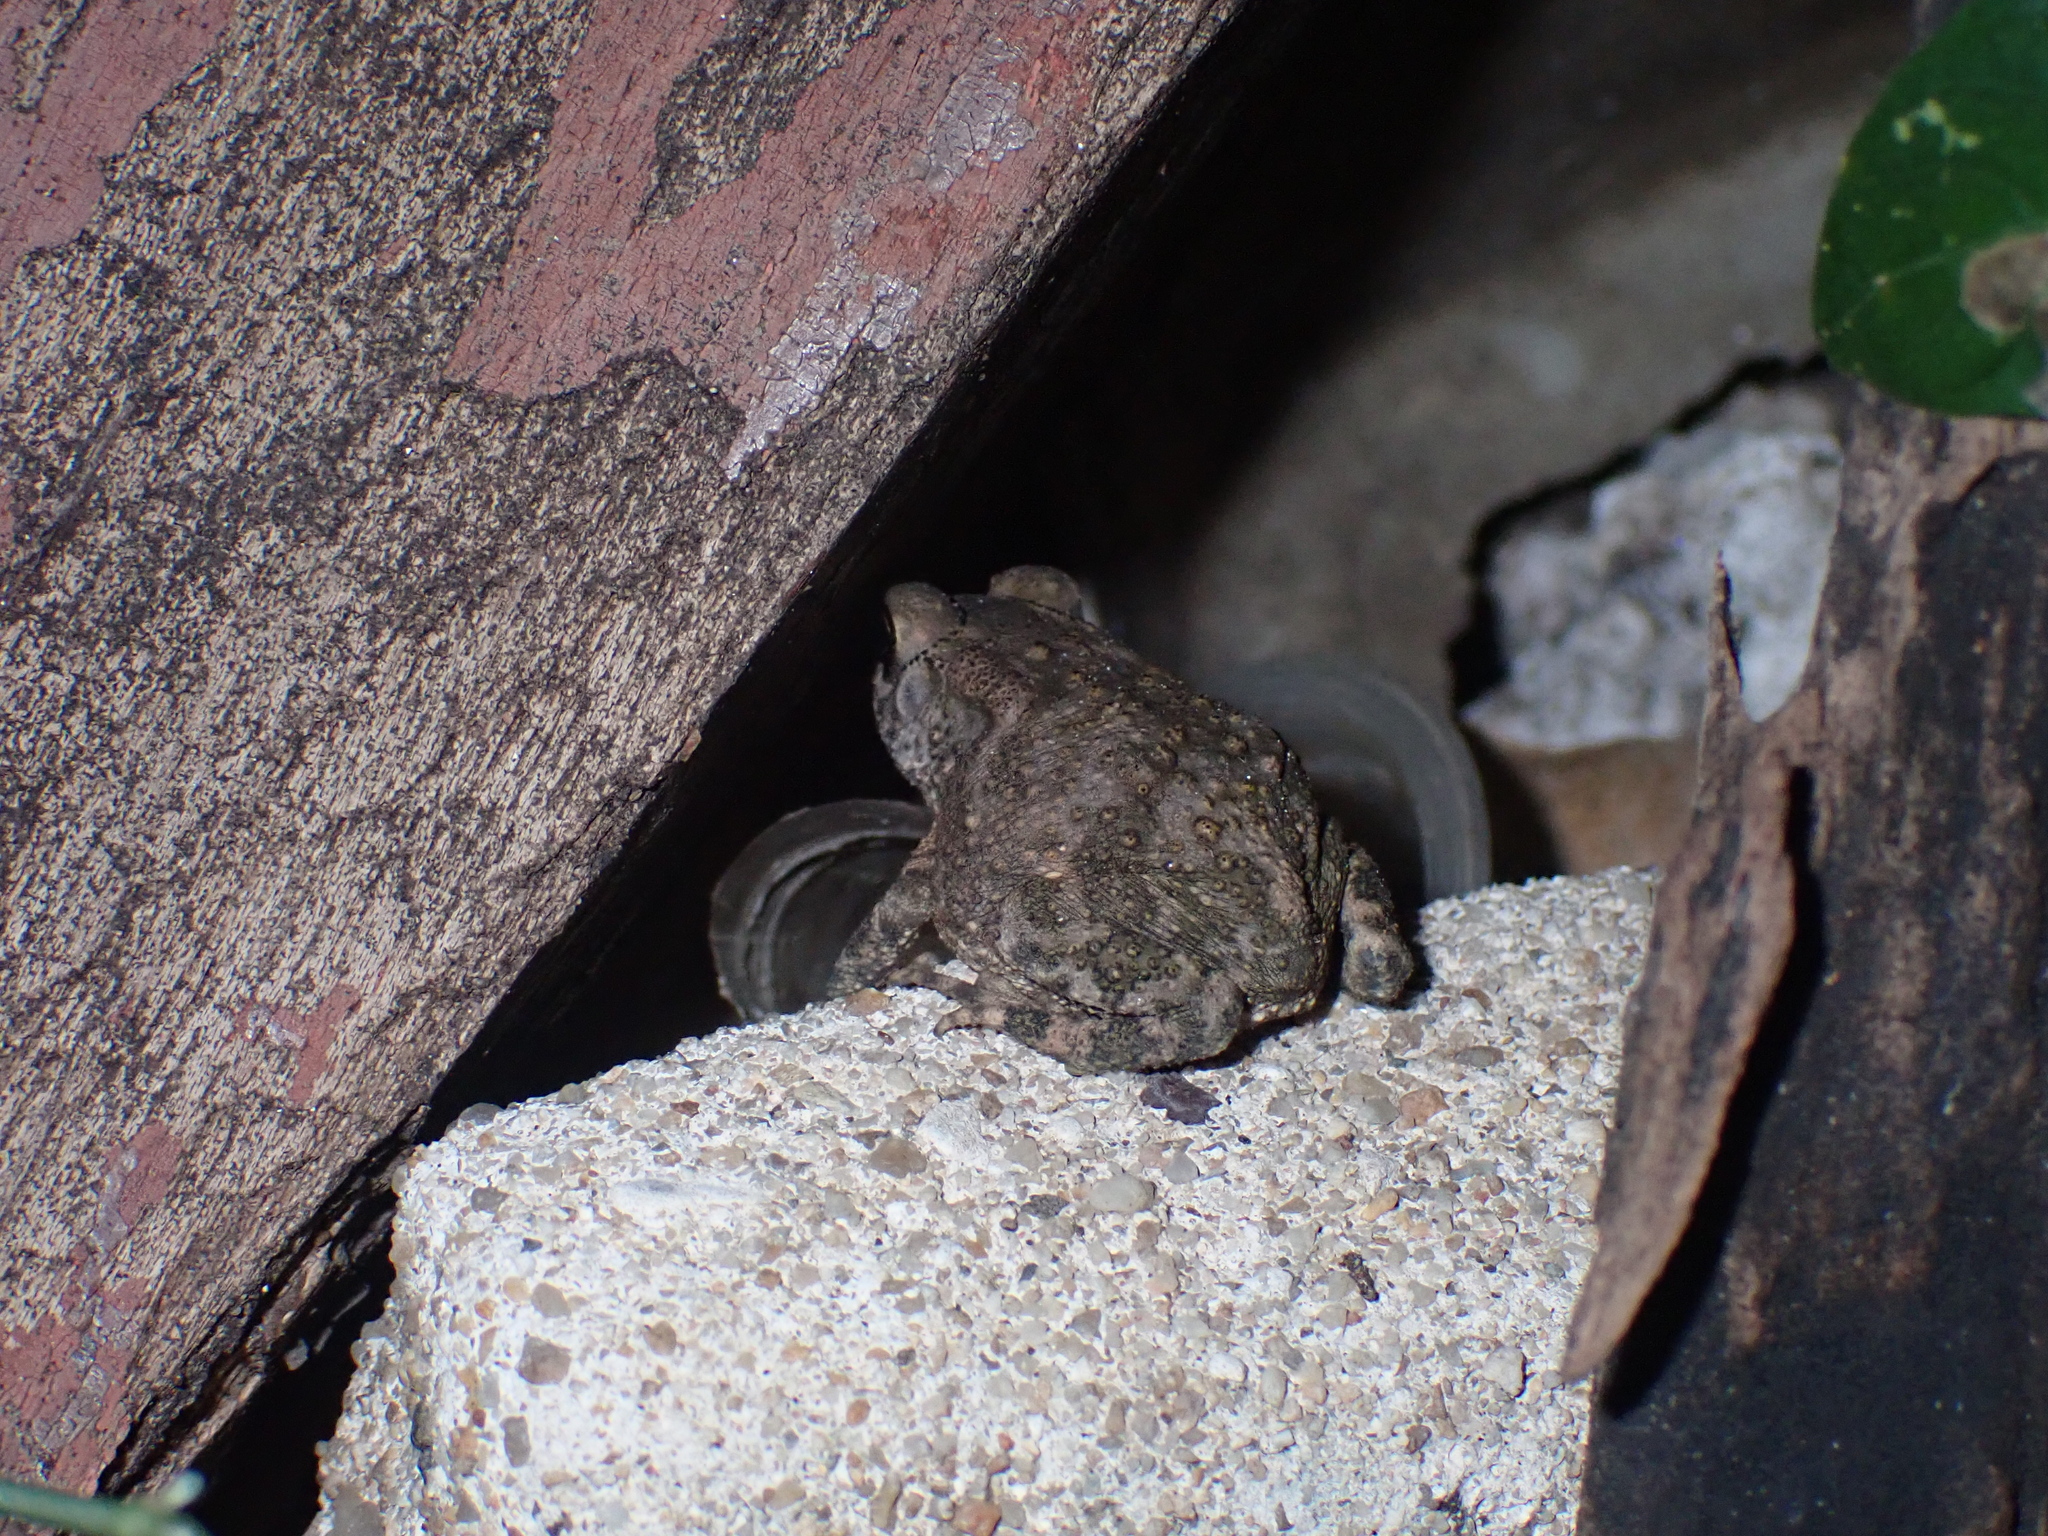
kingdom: Animalia
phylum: Chordata
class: Amphibia
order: Anura
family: Bufonidae
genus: Duttaphrynus
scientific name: Duttaphrynus melanostictus
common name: Common sunda toad
